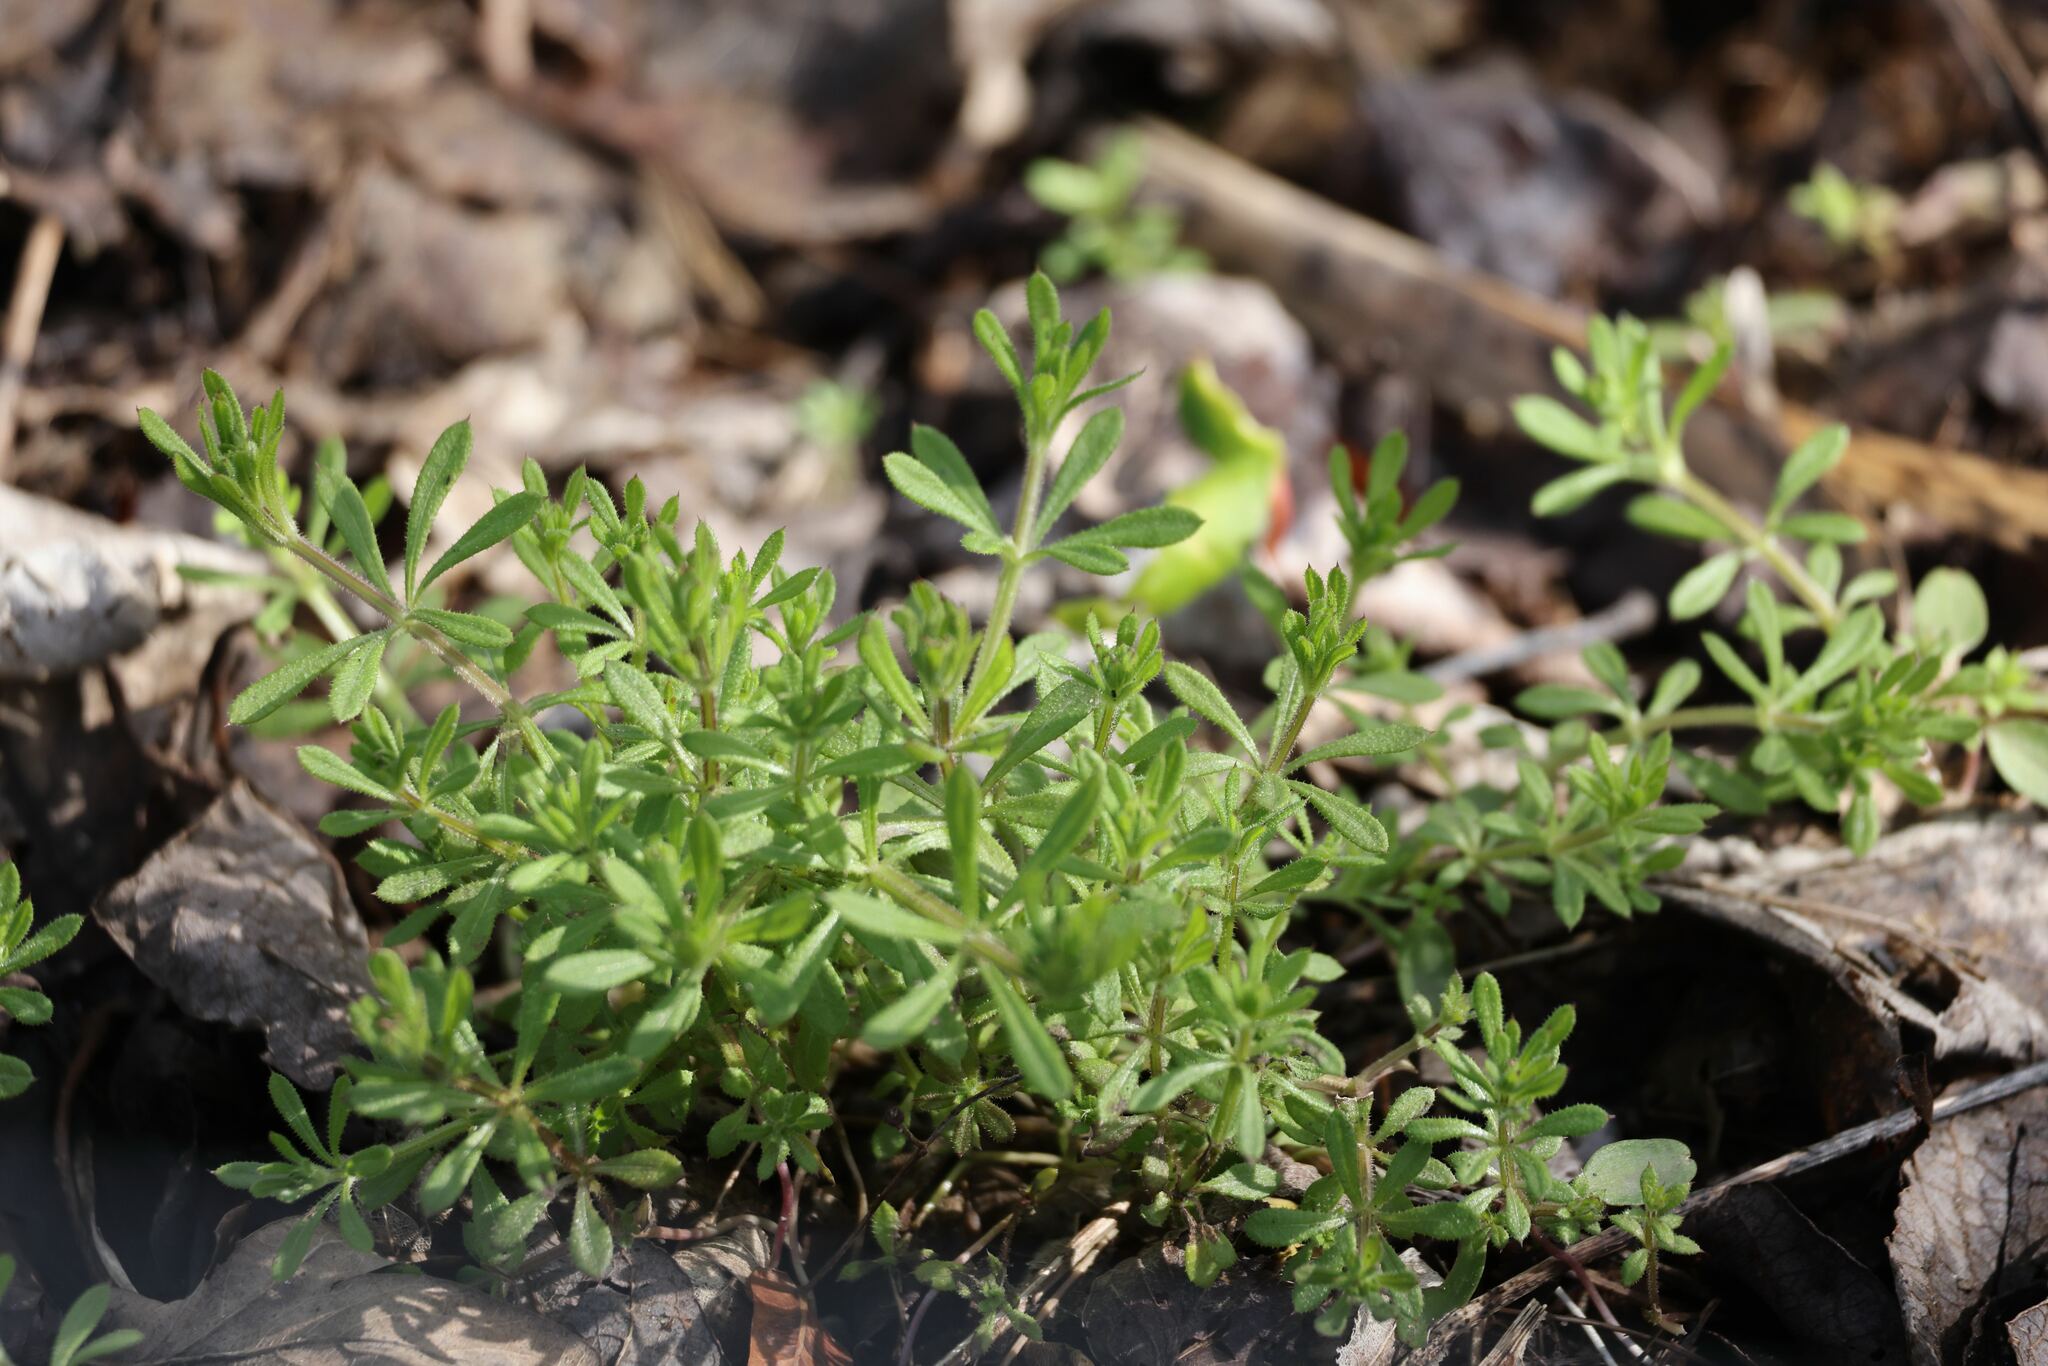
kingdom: Plantae
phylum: Tracheophyta
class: Magnoliopsida
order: Gentianales
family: Rubiaceae
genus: Galium
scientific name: Galium aparine
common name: Cleavers
